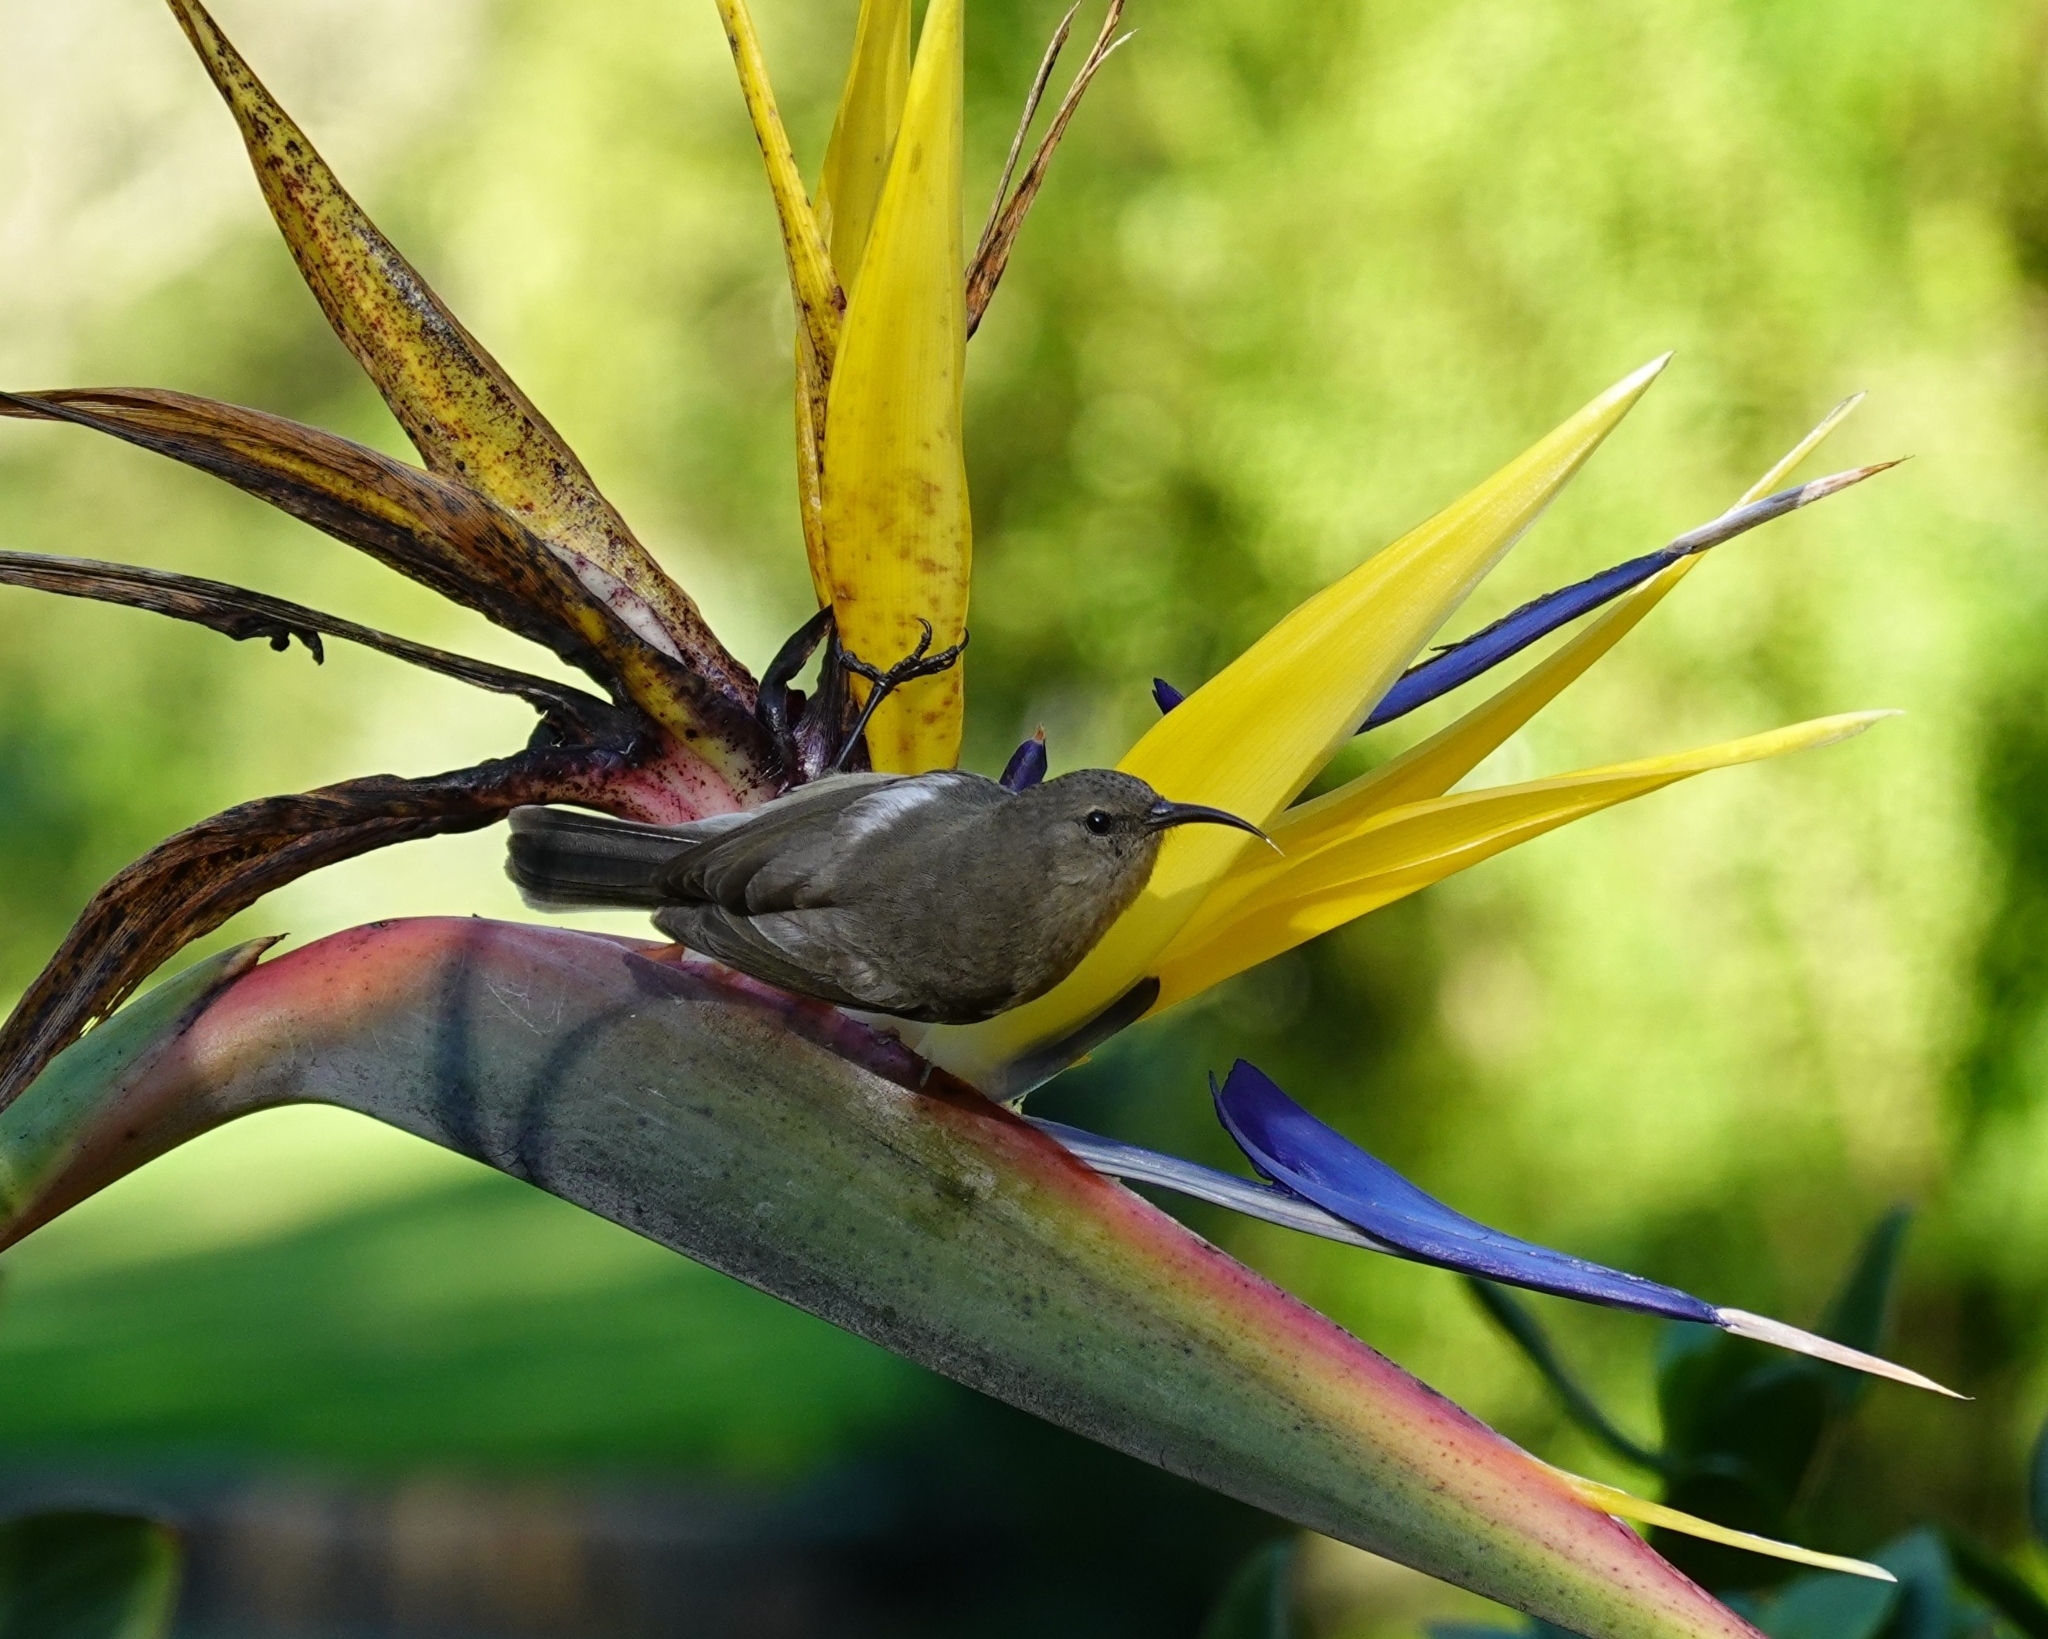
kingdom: Animalia
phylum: Chordata
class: Aves
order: Passeriformes
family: Nectariniidae
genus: Cinnyris
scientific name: Cinnyris chalybeus
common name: Southern double-collared sunbird
